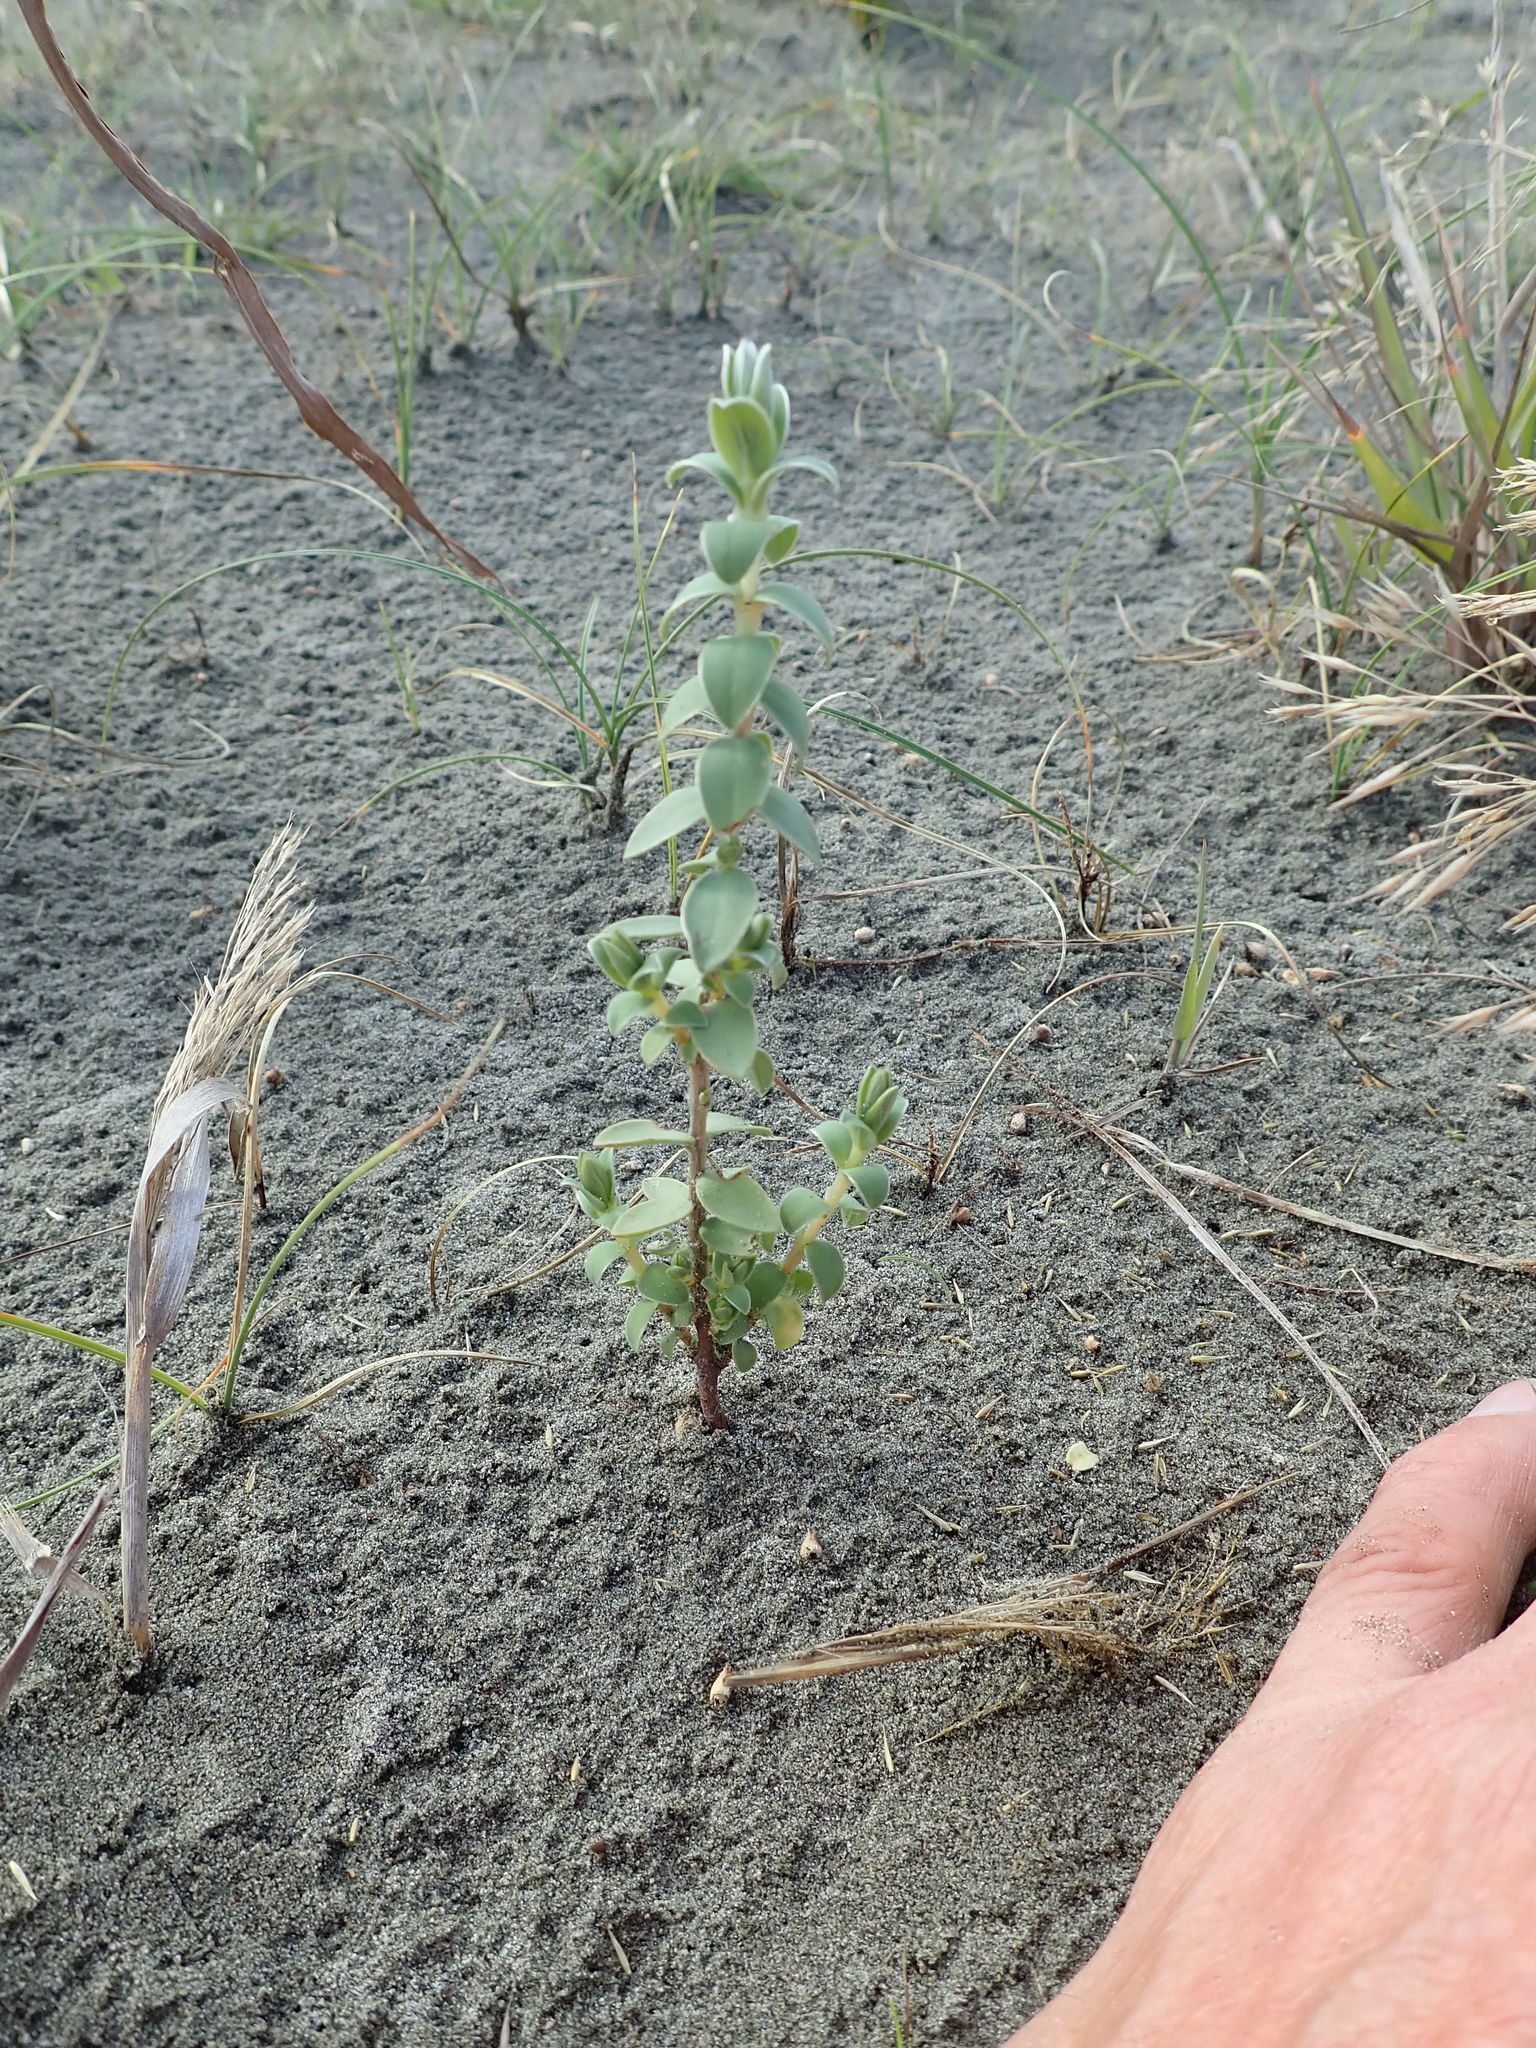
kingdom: Plantae
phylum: Tracheophyta
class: Magnoliopsida
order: Malvales
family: Thymelaeaceae
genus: Pimelea
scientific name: Pimelea villosa
